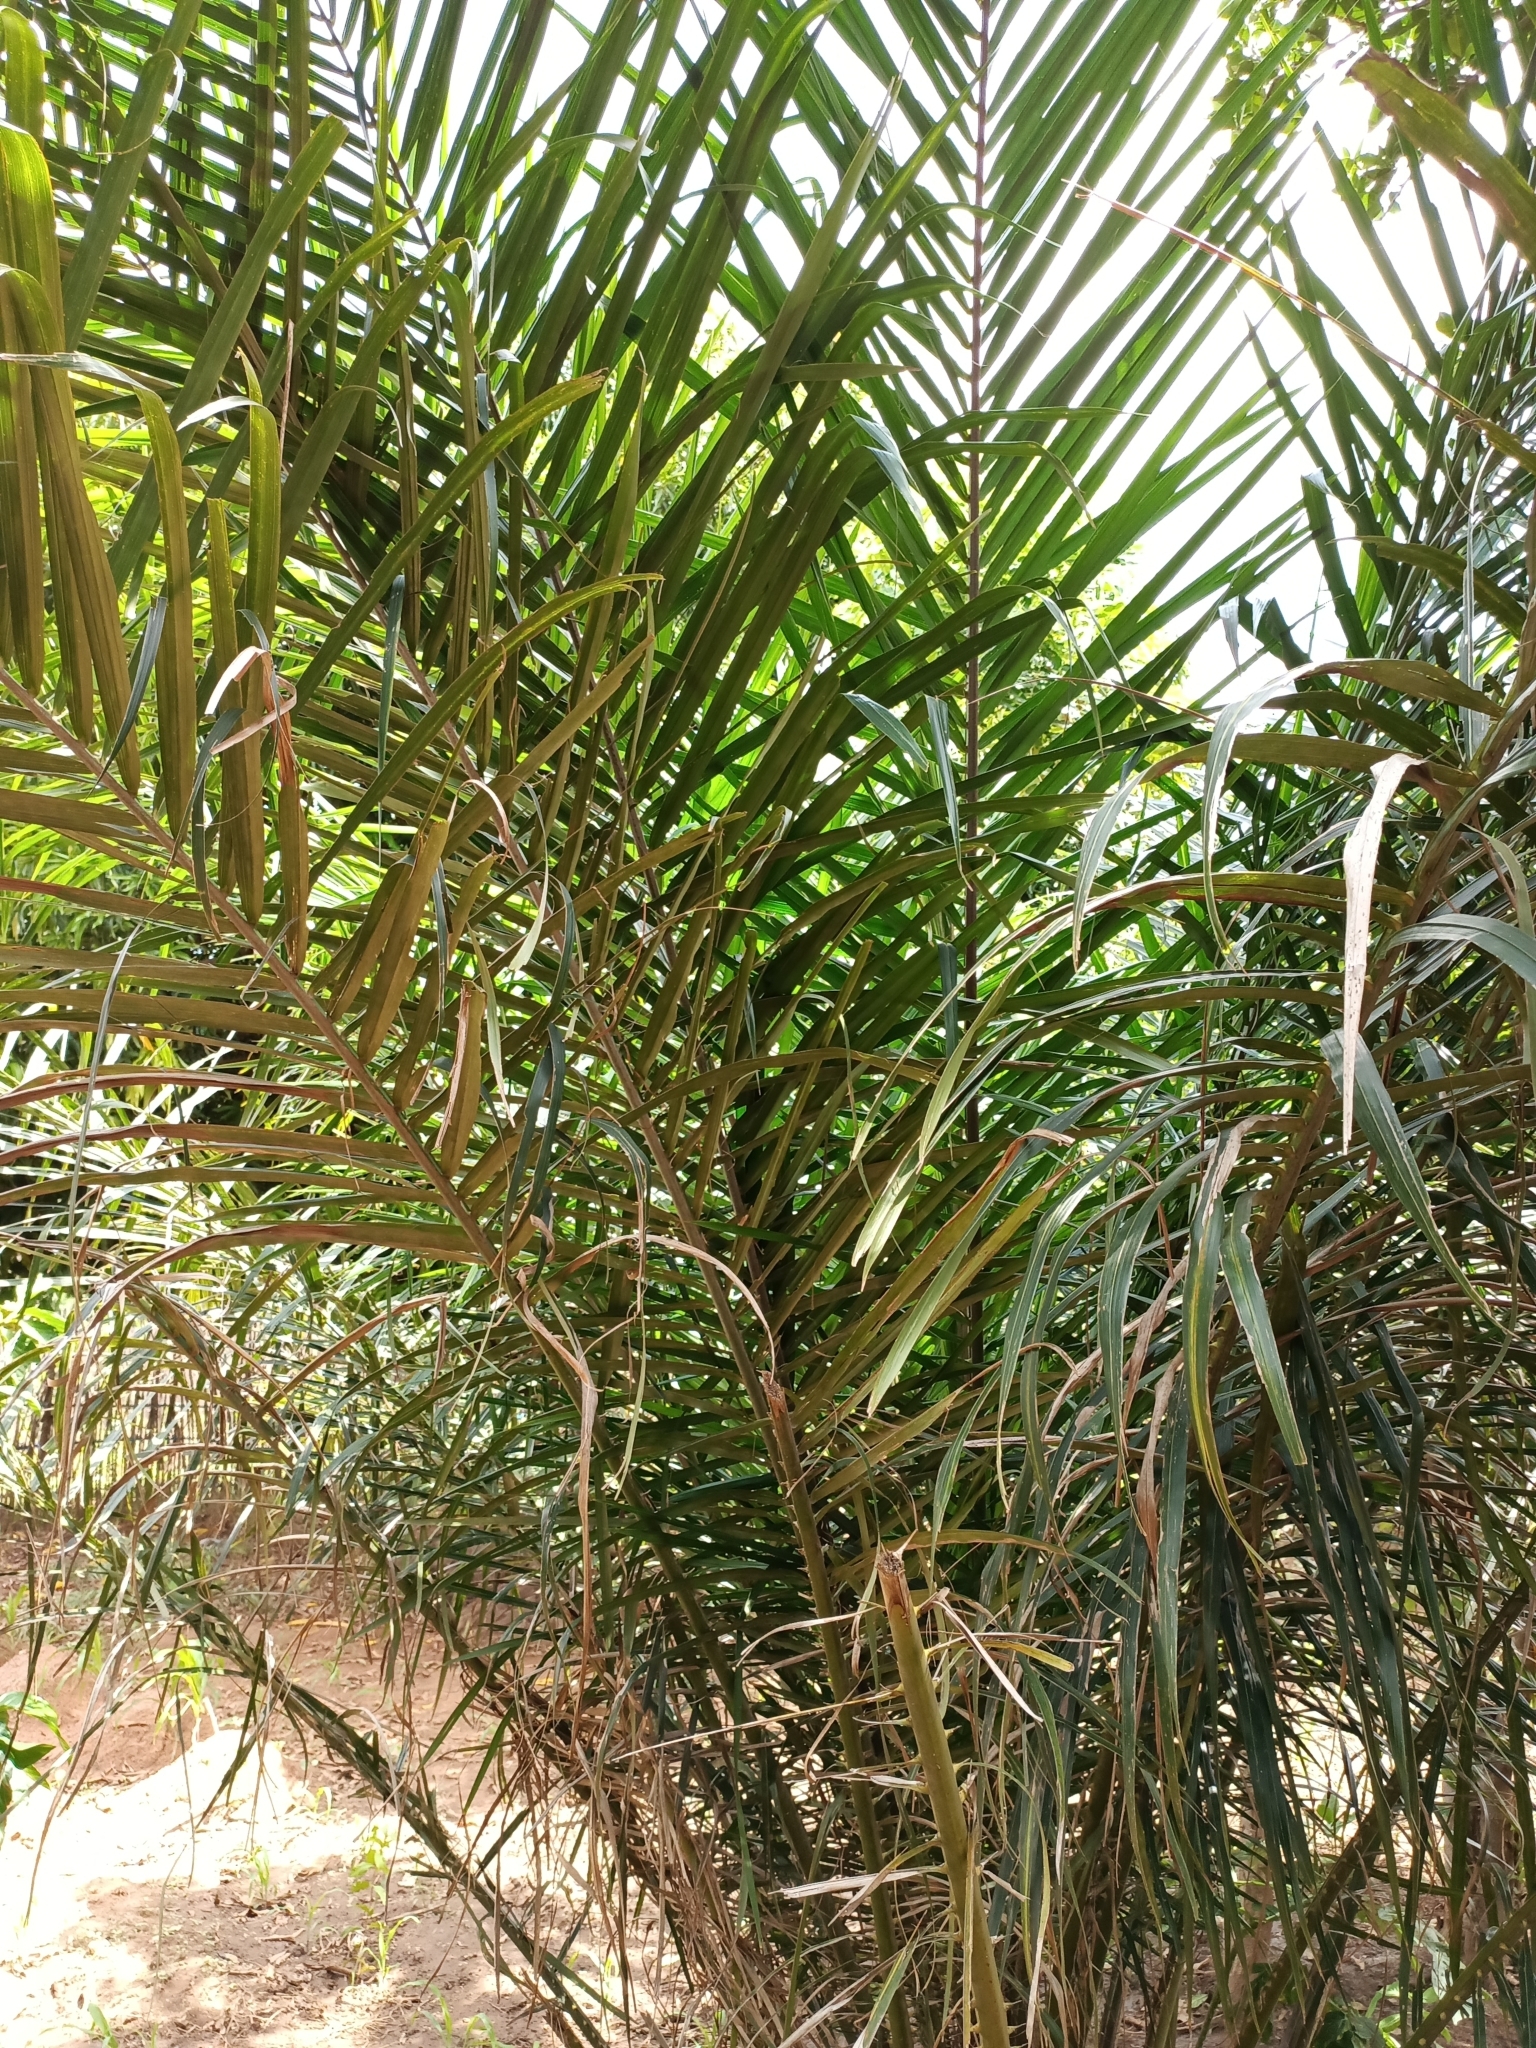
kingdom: Plantae
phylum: Tracheophyta
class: Liliopsida
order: Arecales
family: Arecaceae
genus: Elaeis
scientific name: Elaeis guineensis
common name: Oil palm
